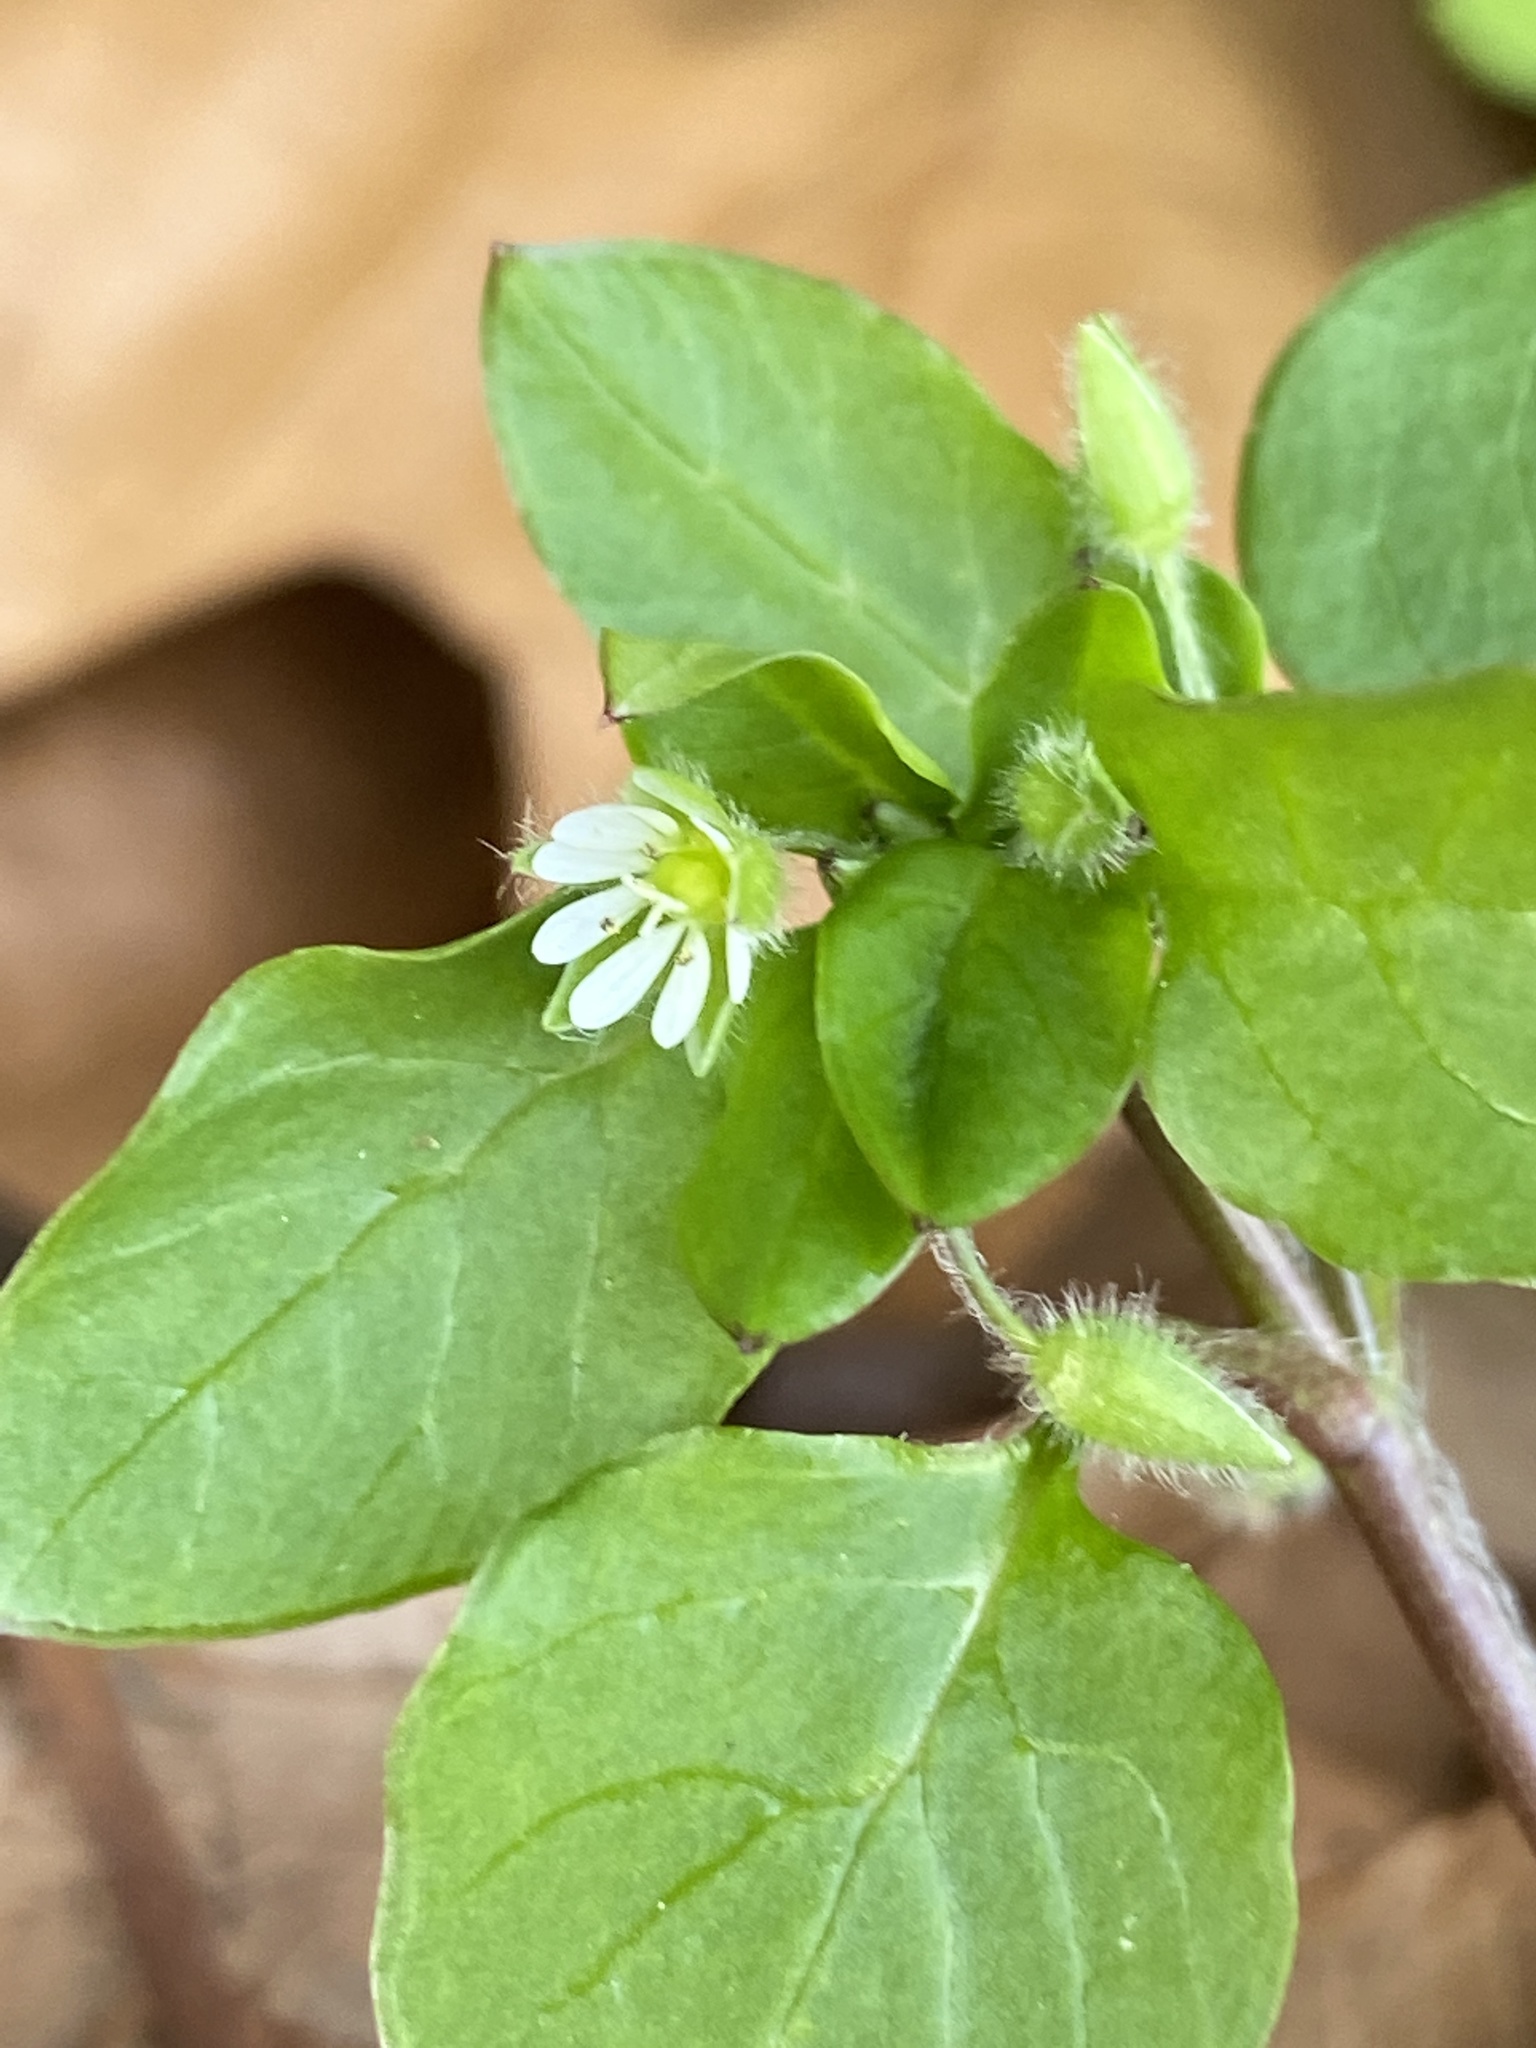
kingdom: Plantae
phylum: Tracheophyta
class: Magnoliopsida
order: Caryophyllales
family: Caryophyllaceae
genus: Stellaria
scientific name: Stellaria media
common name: Common chickweed
